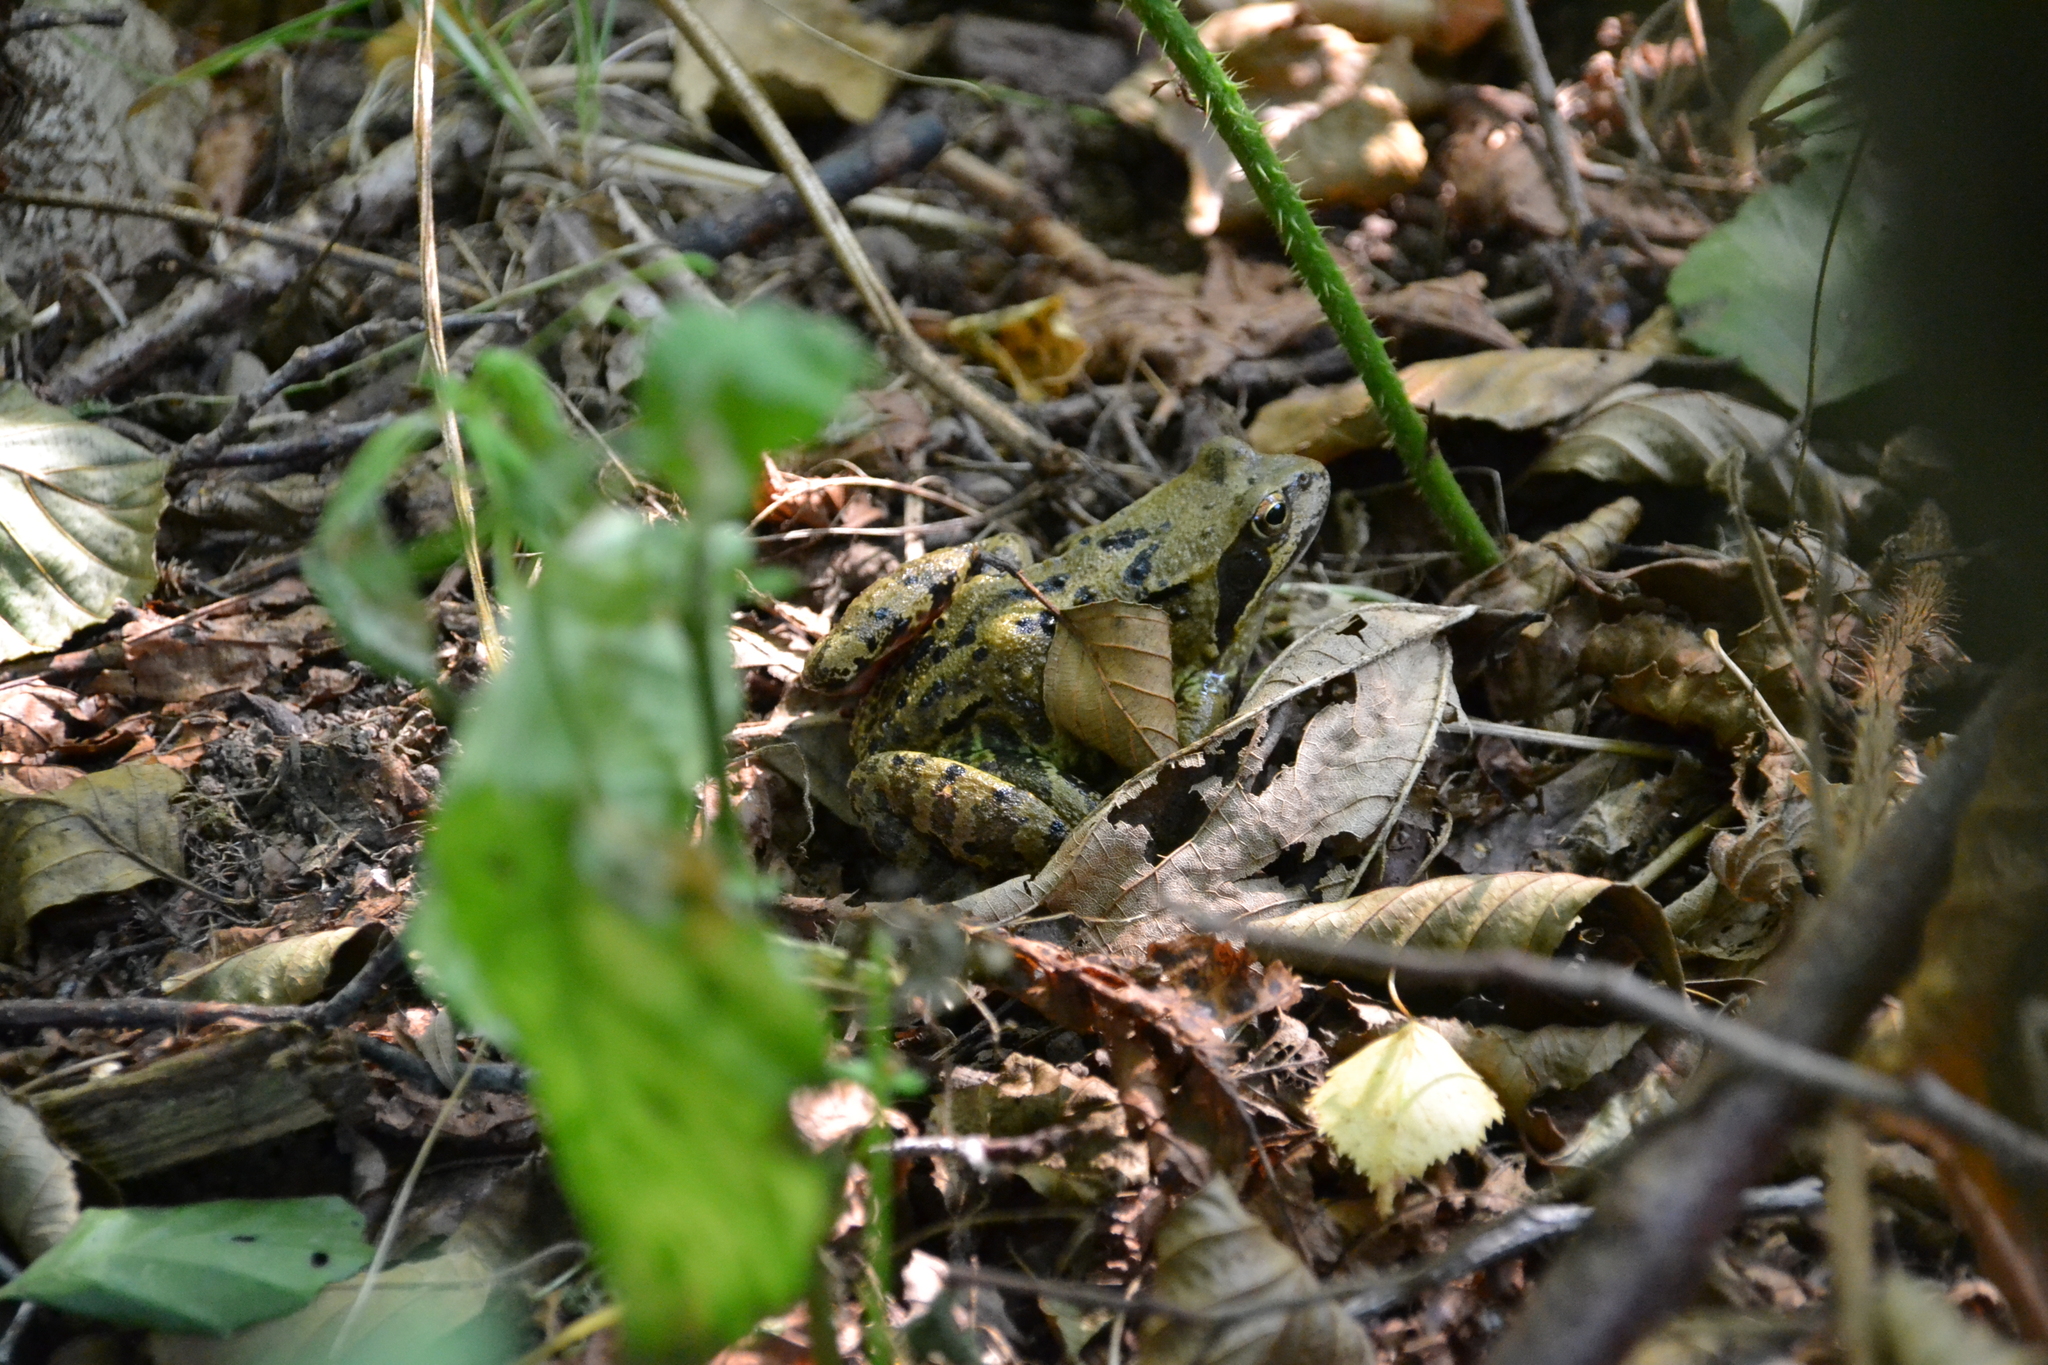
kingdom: Animalia
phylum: Chordata
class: Amphibia
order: Anura
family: Ranidae
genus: Rana
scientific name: Rana temporaria
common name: Common frog
